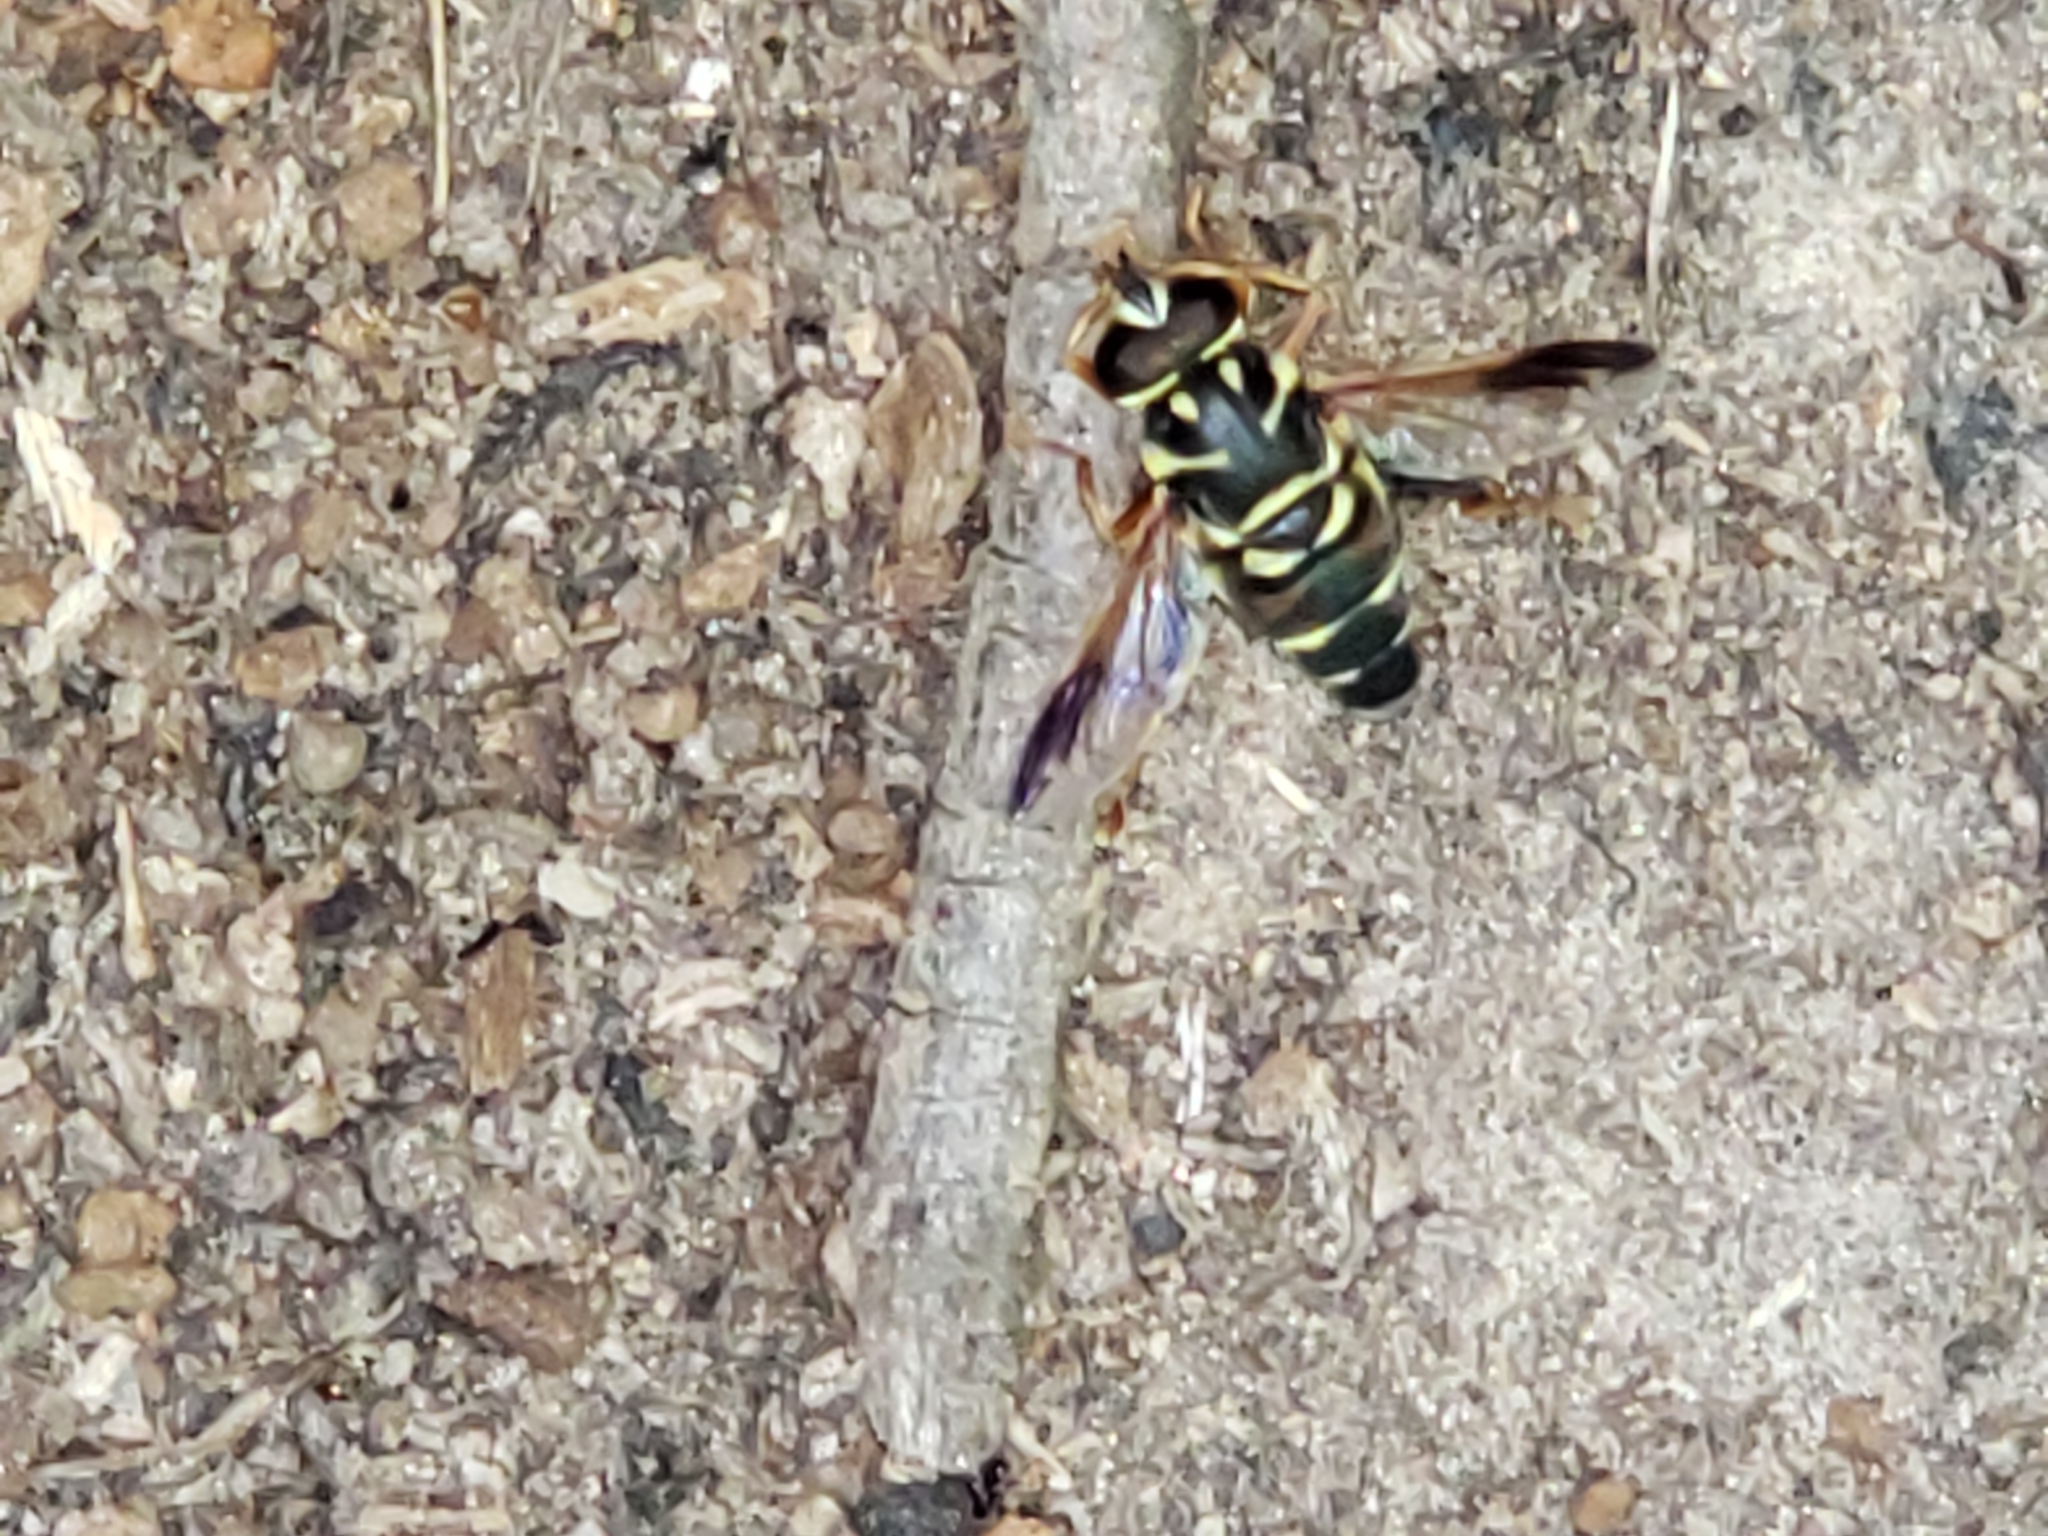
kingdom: Animalia
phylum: Arthropoda
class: Insecta
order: Diptera
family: Syrphidae
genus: Meromacrus
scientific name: Meromacrus acutus
